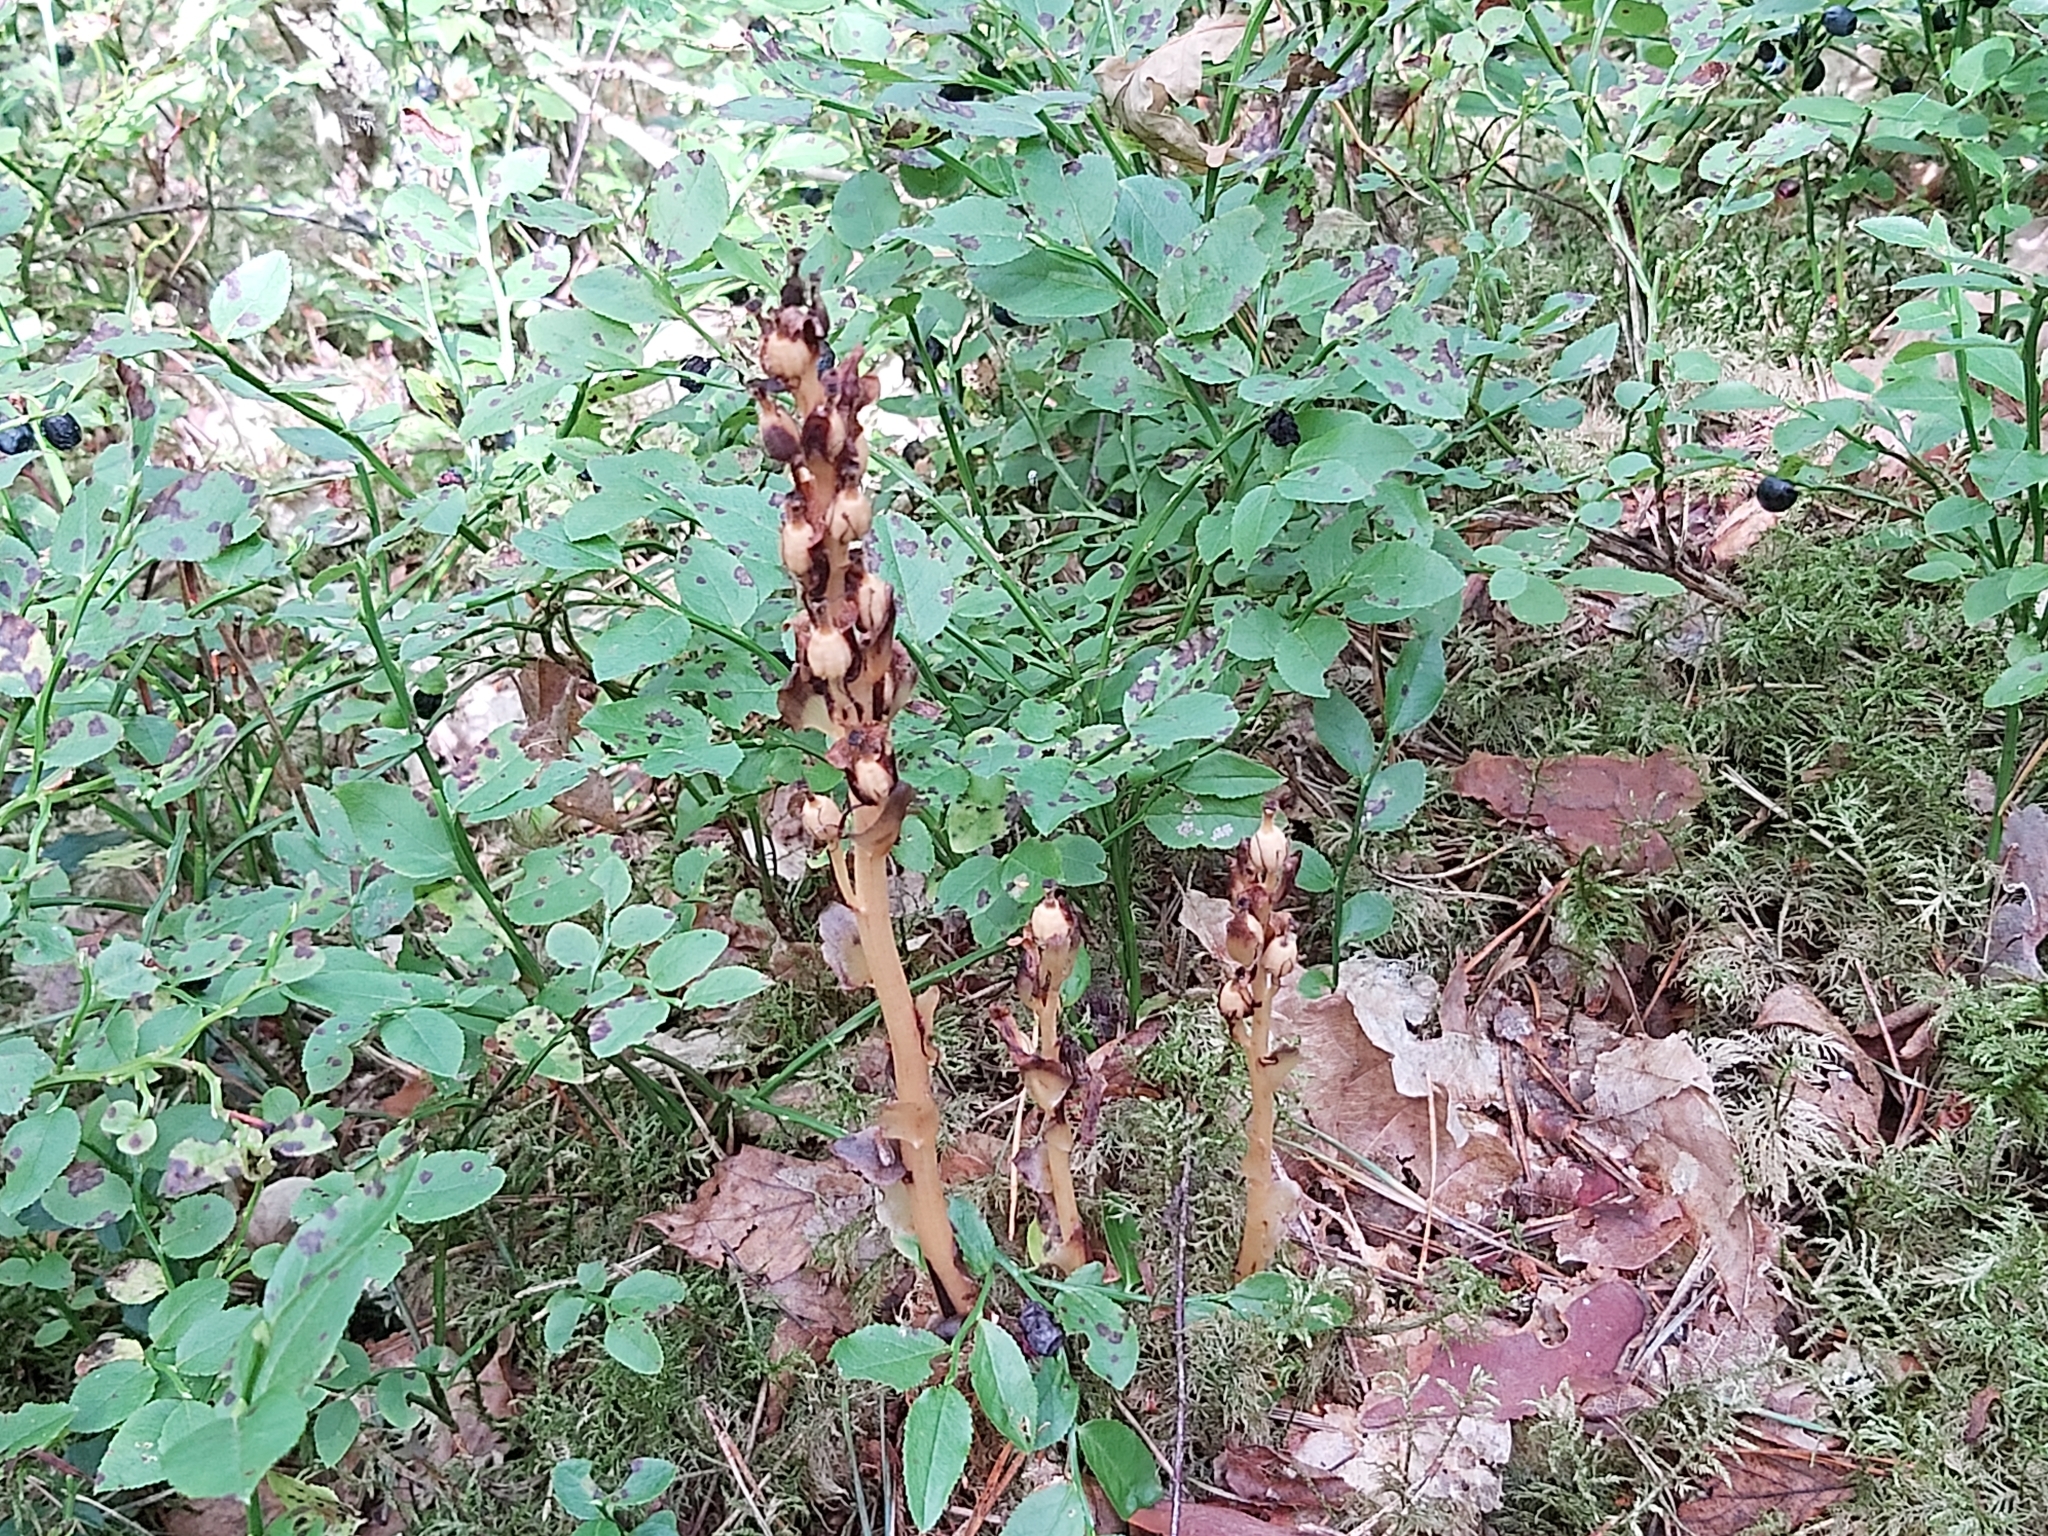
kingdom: Plantae
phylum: Tracheophyta
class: Magnoliopsida
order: Ericales
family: Ericaceae
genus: Hypopitys
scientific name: Hypopitys monotropa
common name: Yellow bird's-nest
